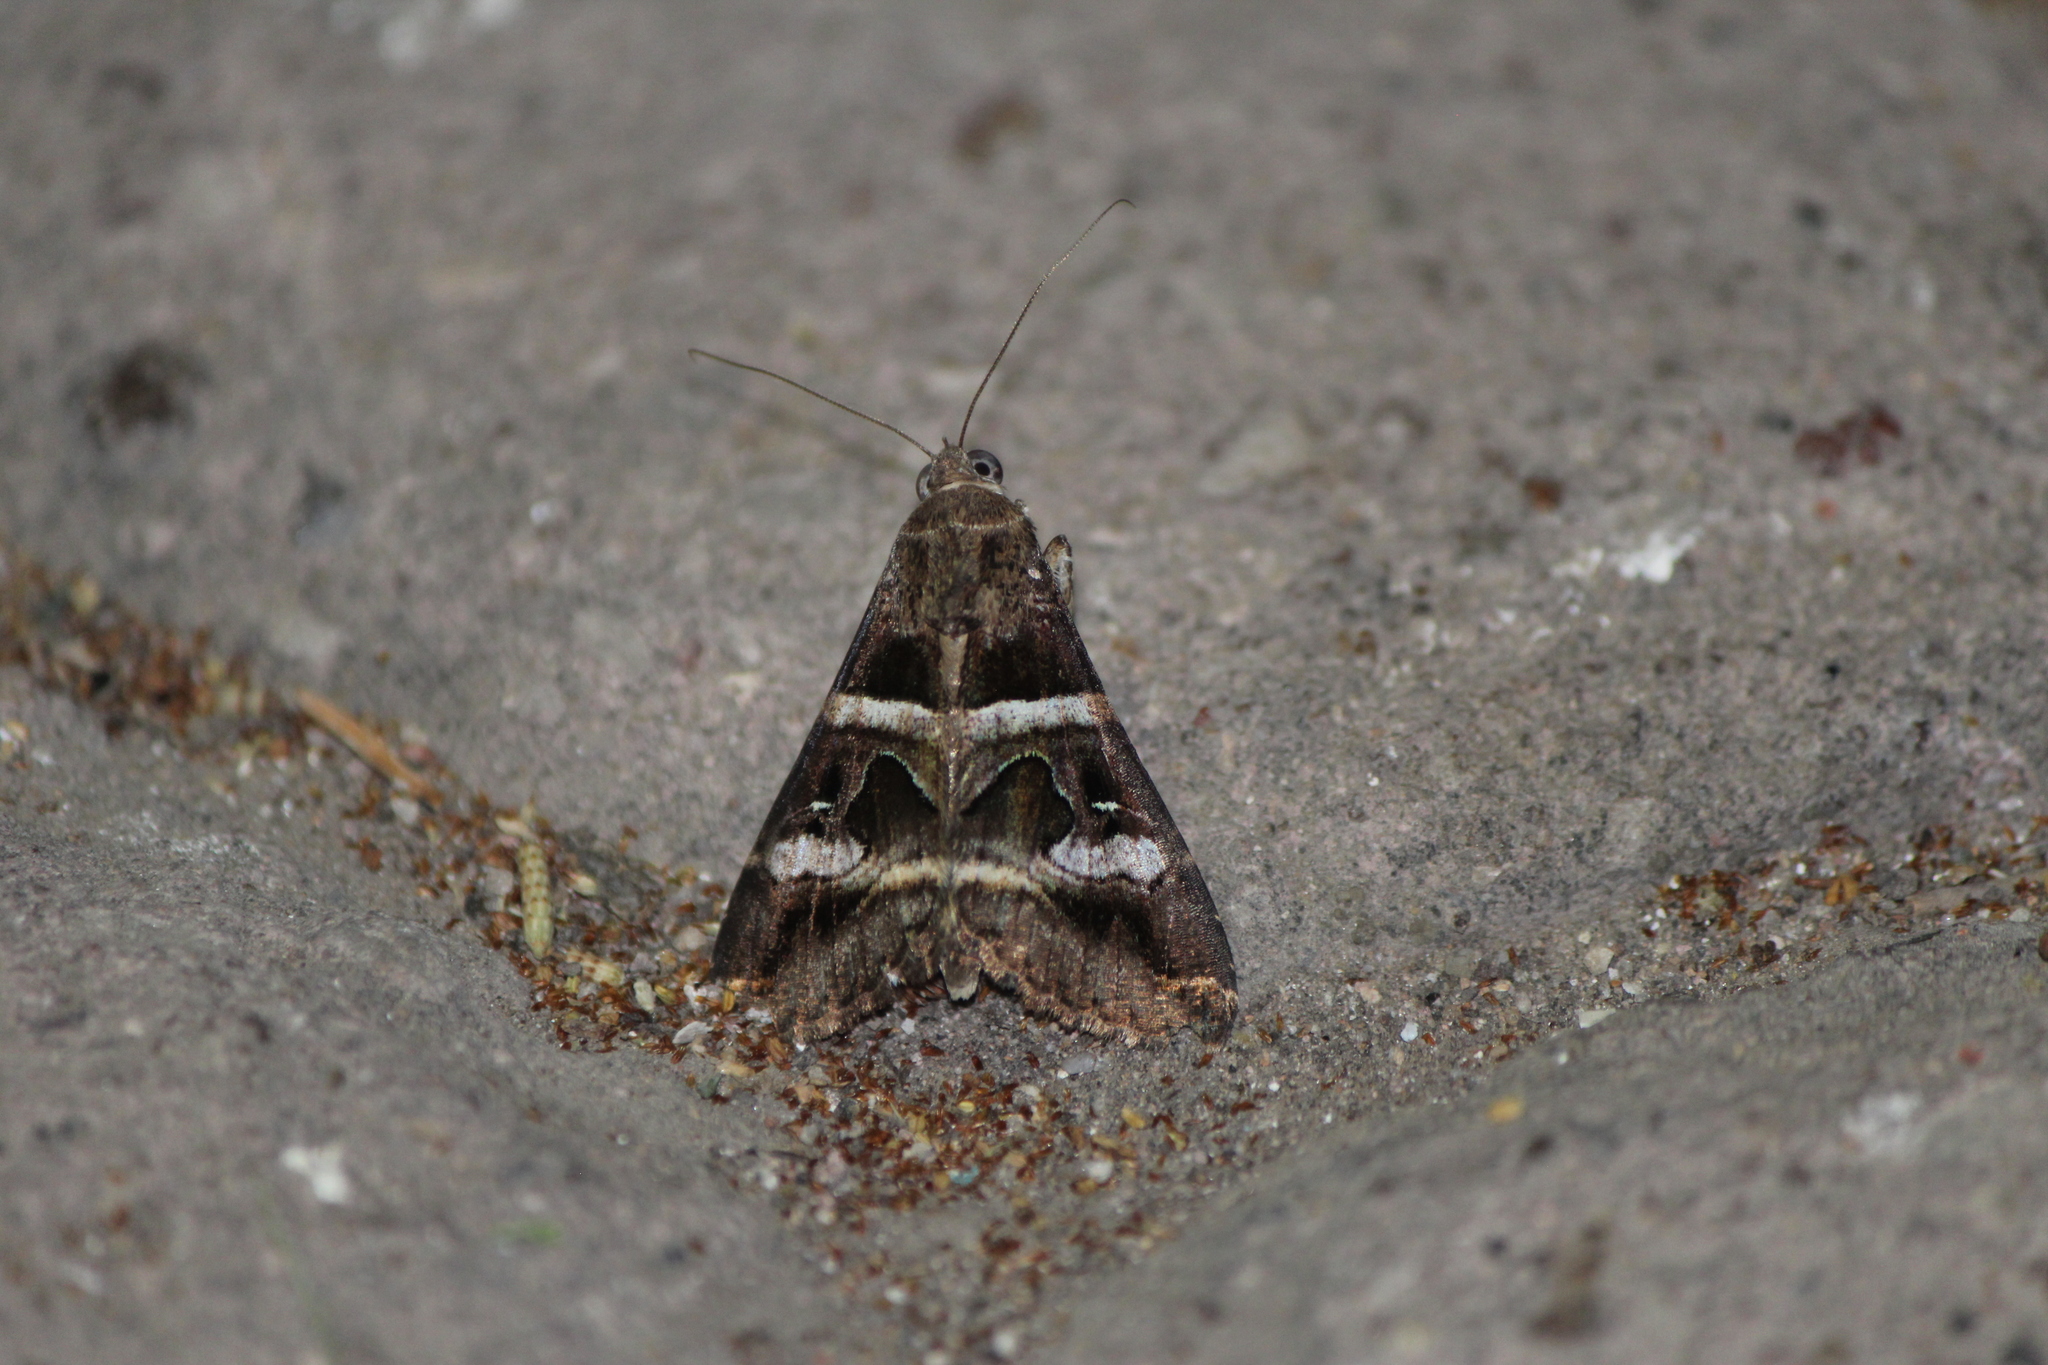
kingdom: Animalia
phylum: Arthropoda
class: Insecta
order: Lepidoptera
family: Erebidae
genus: Melipotis
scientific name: Melipotis perpendicularis
